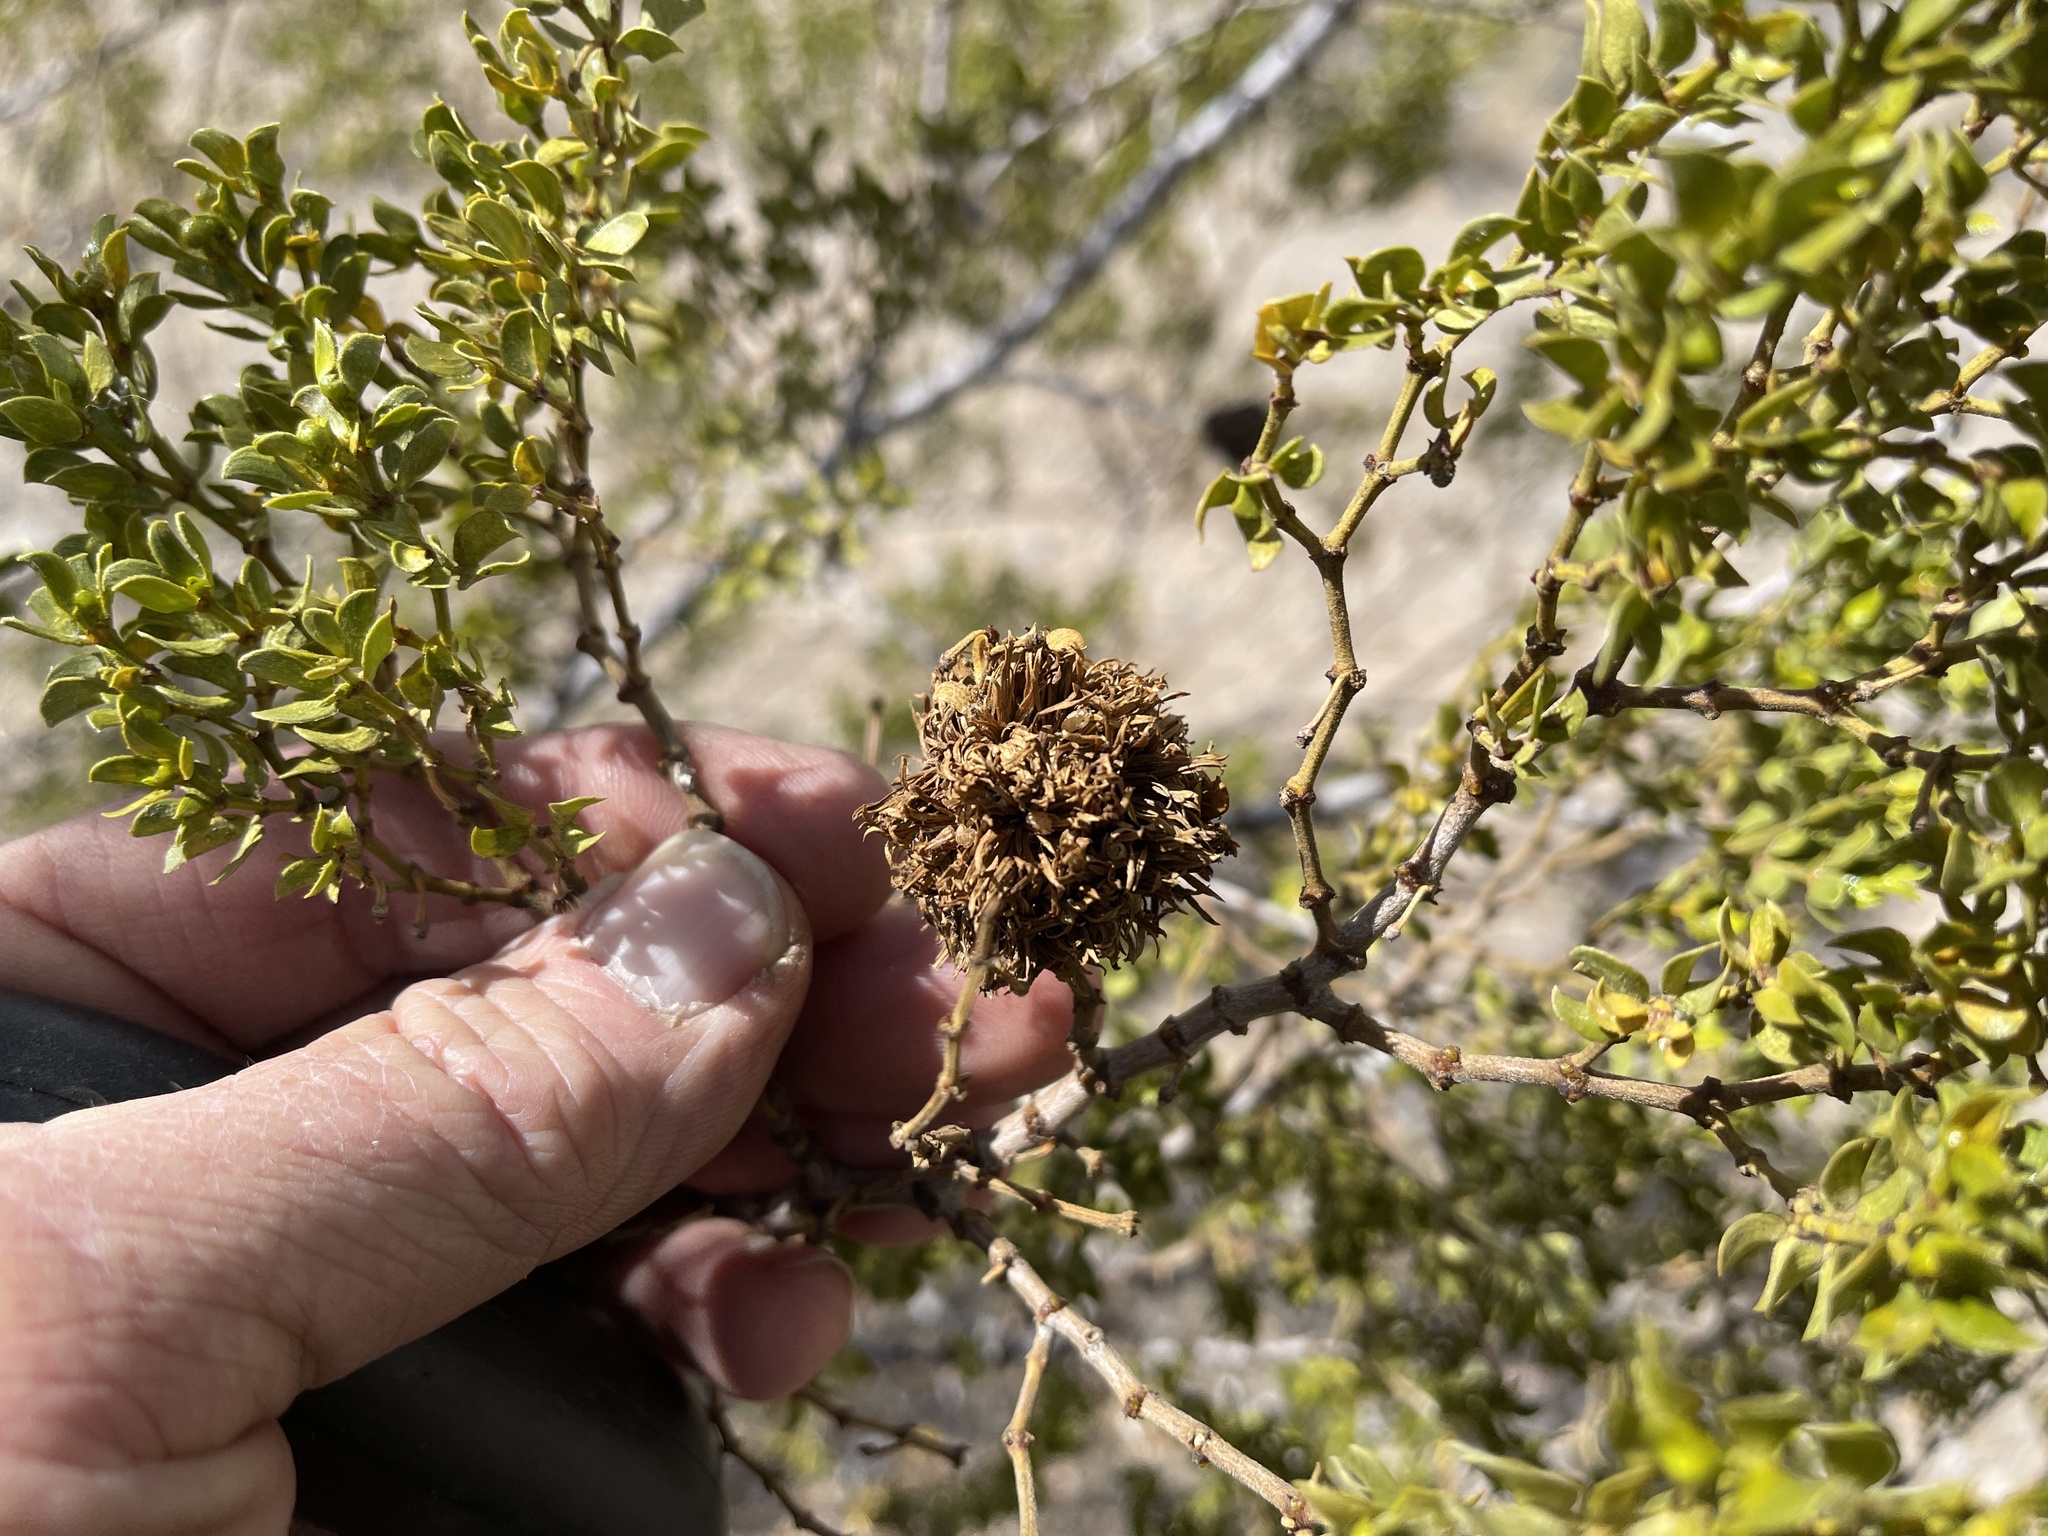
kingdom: Animalia
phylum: Arthropoda
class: Insecta
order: Diptera
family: Cecidomyiidae
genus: Asphondylia
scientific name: Asphondylia auripila
